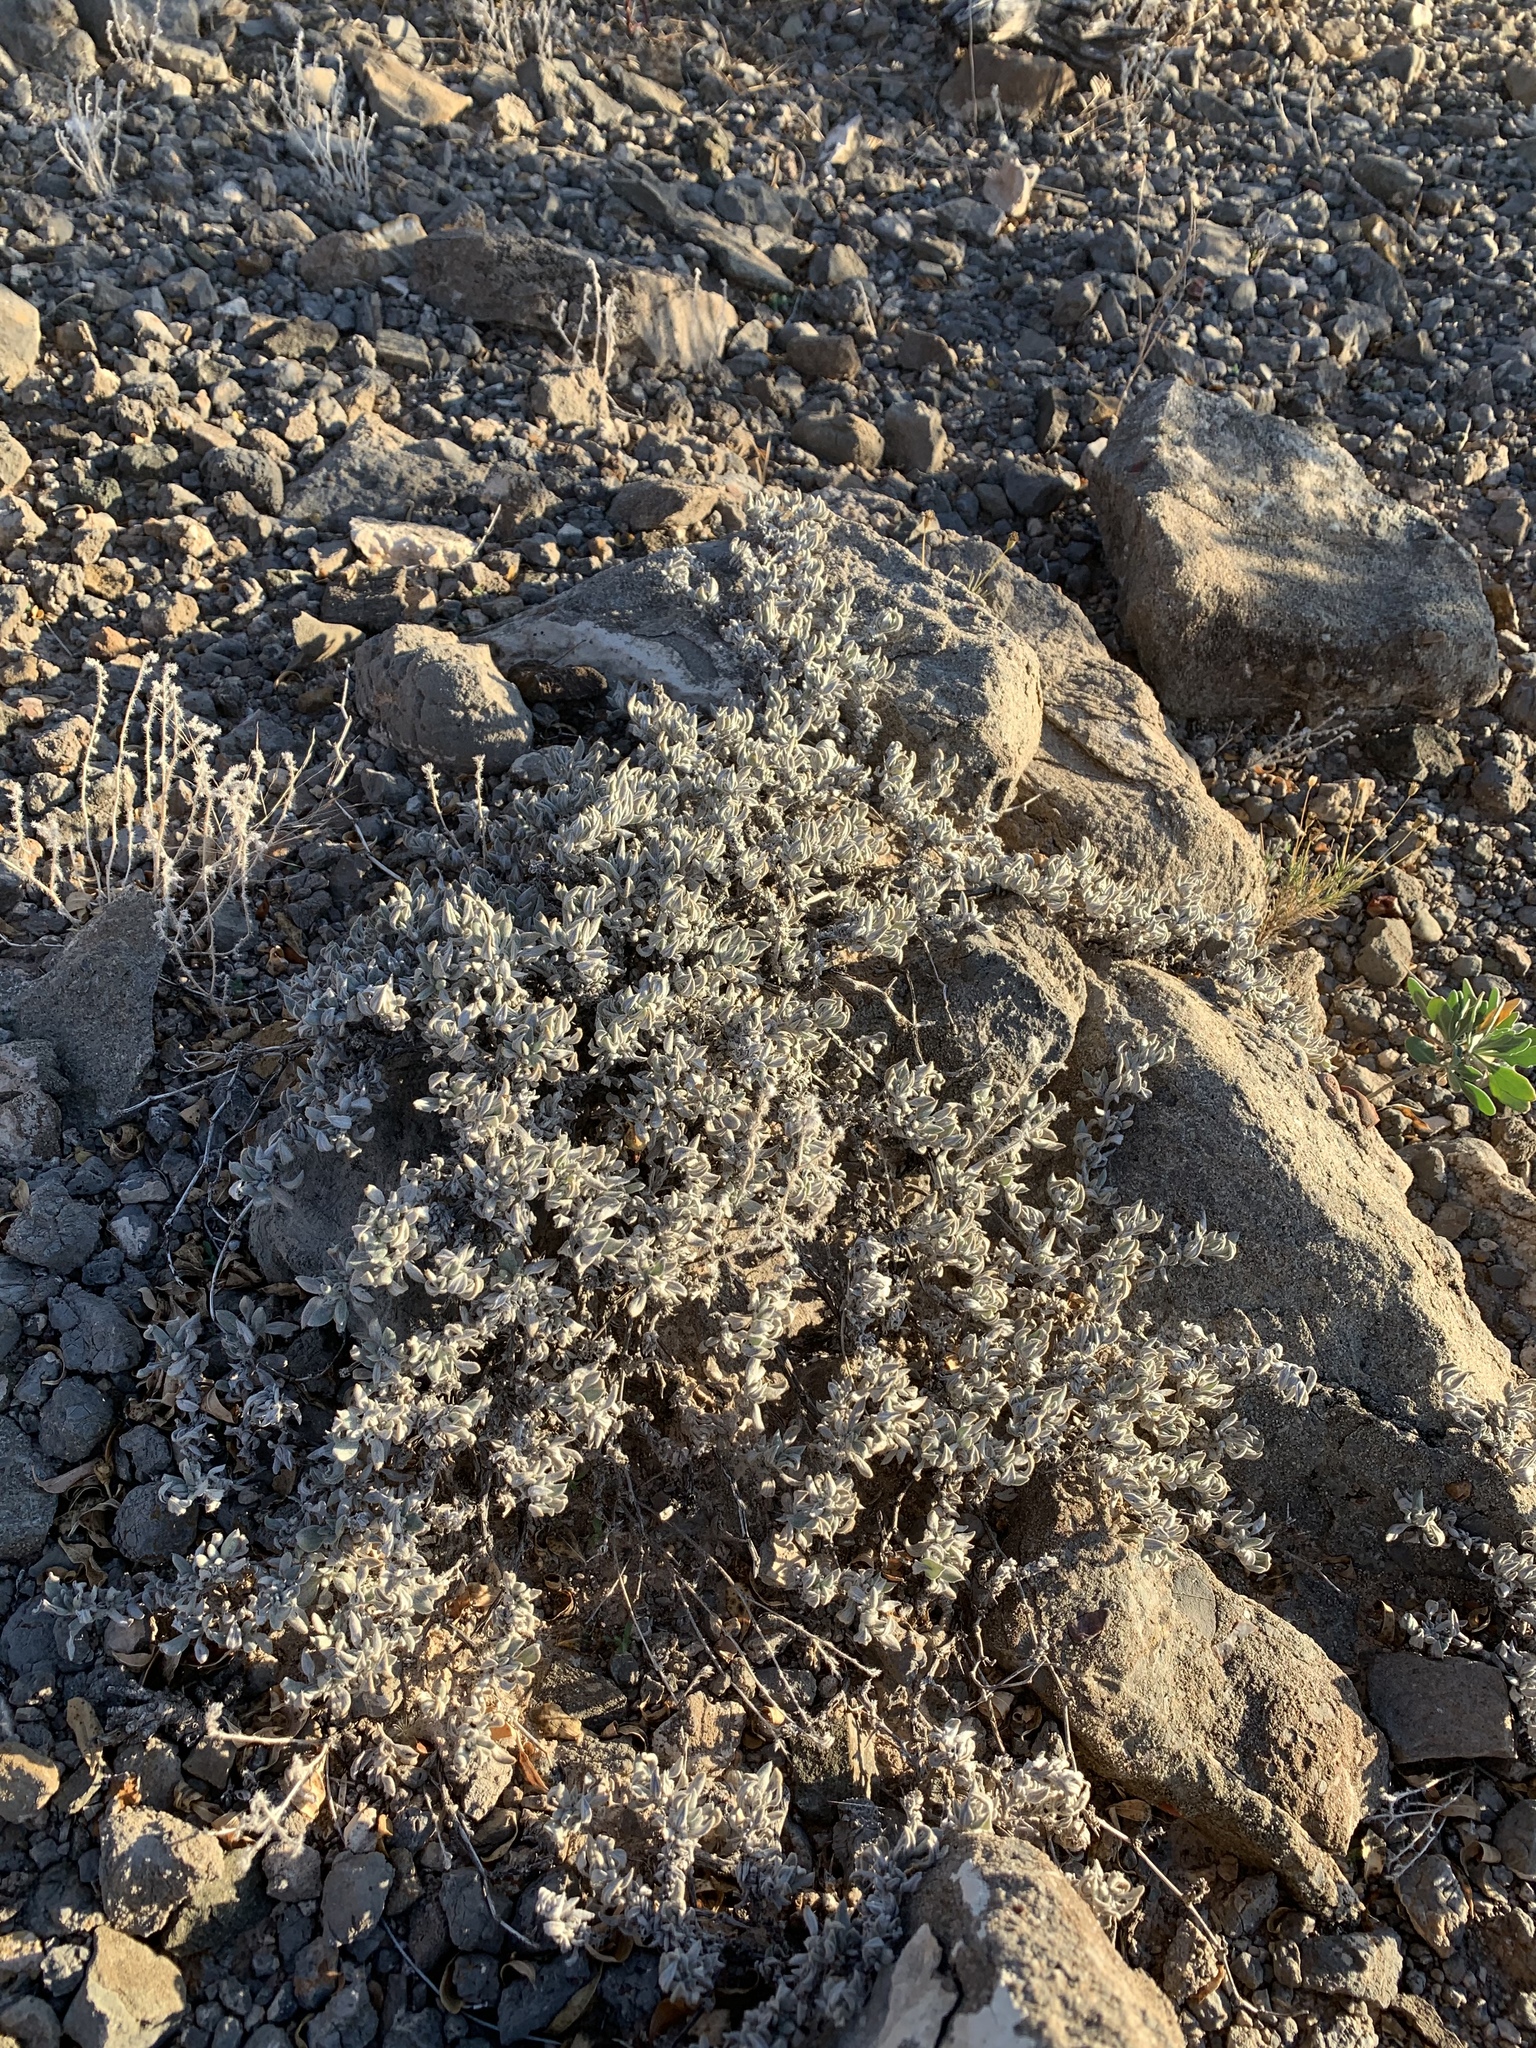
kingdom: Plantae
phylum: Tracheophyta
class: Magnoliopsida
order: Boraginales
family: Ehretiaceae
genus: Tiquilia
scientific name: Tiquilia canescens
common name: Hairy tiquilia
